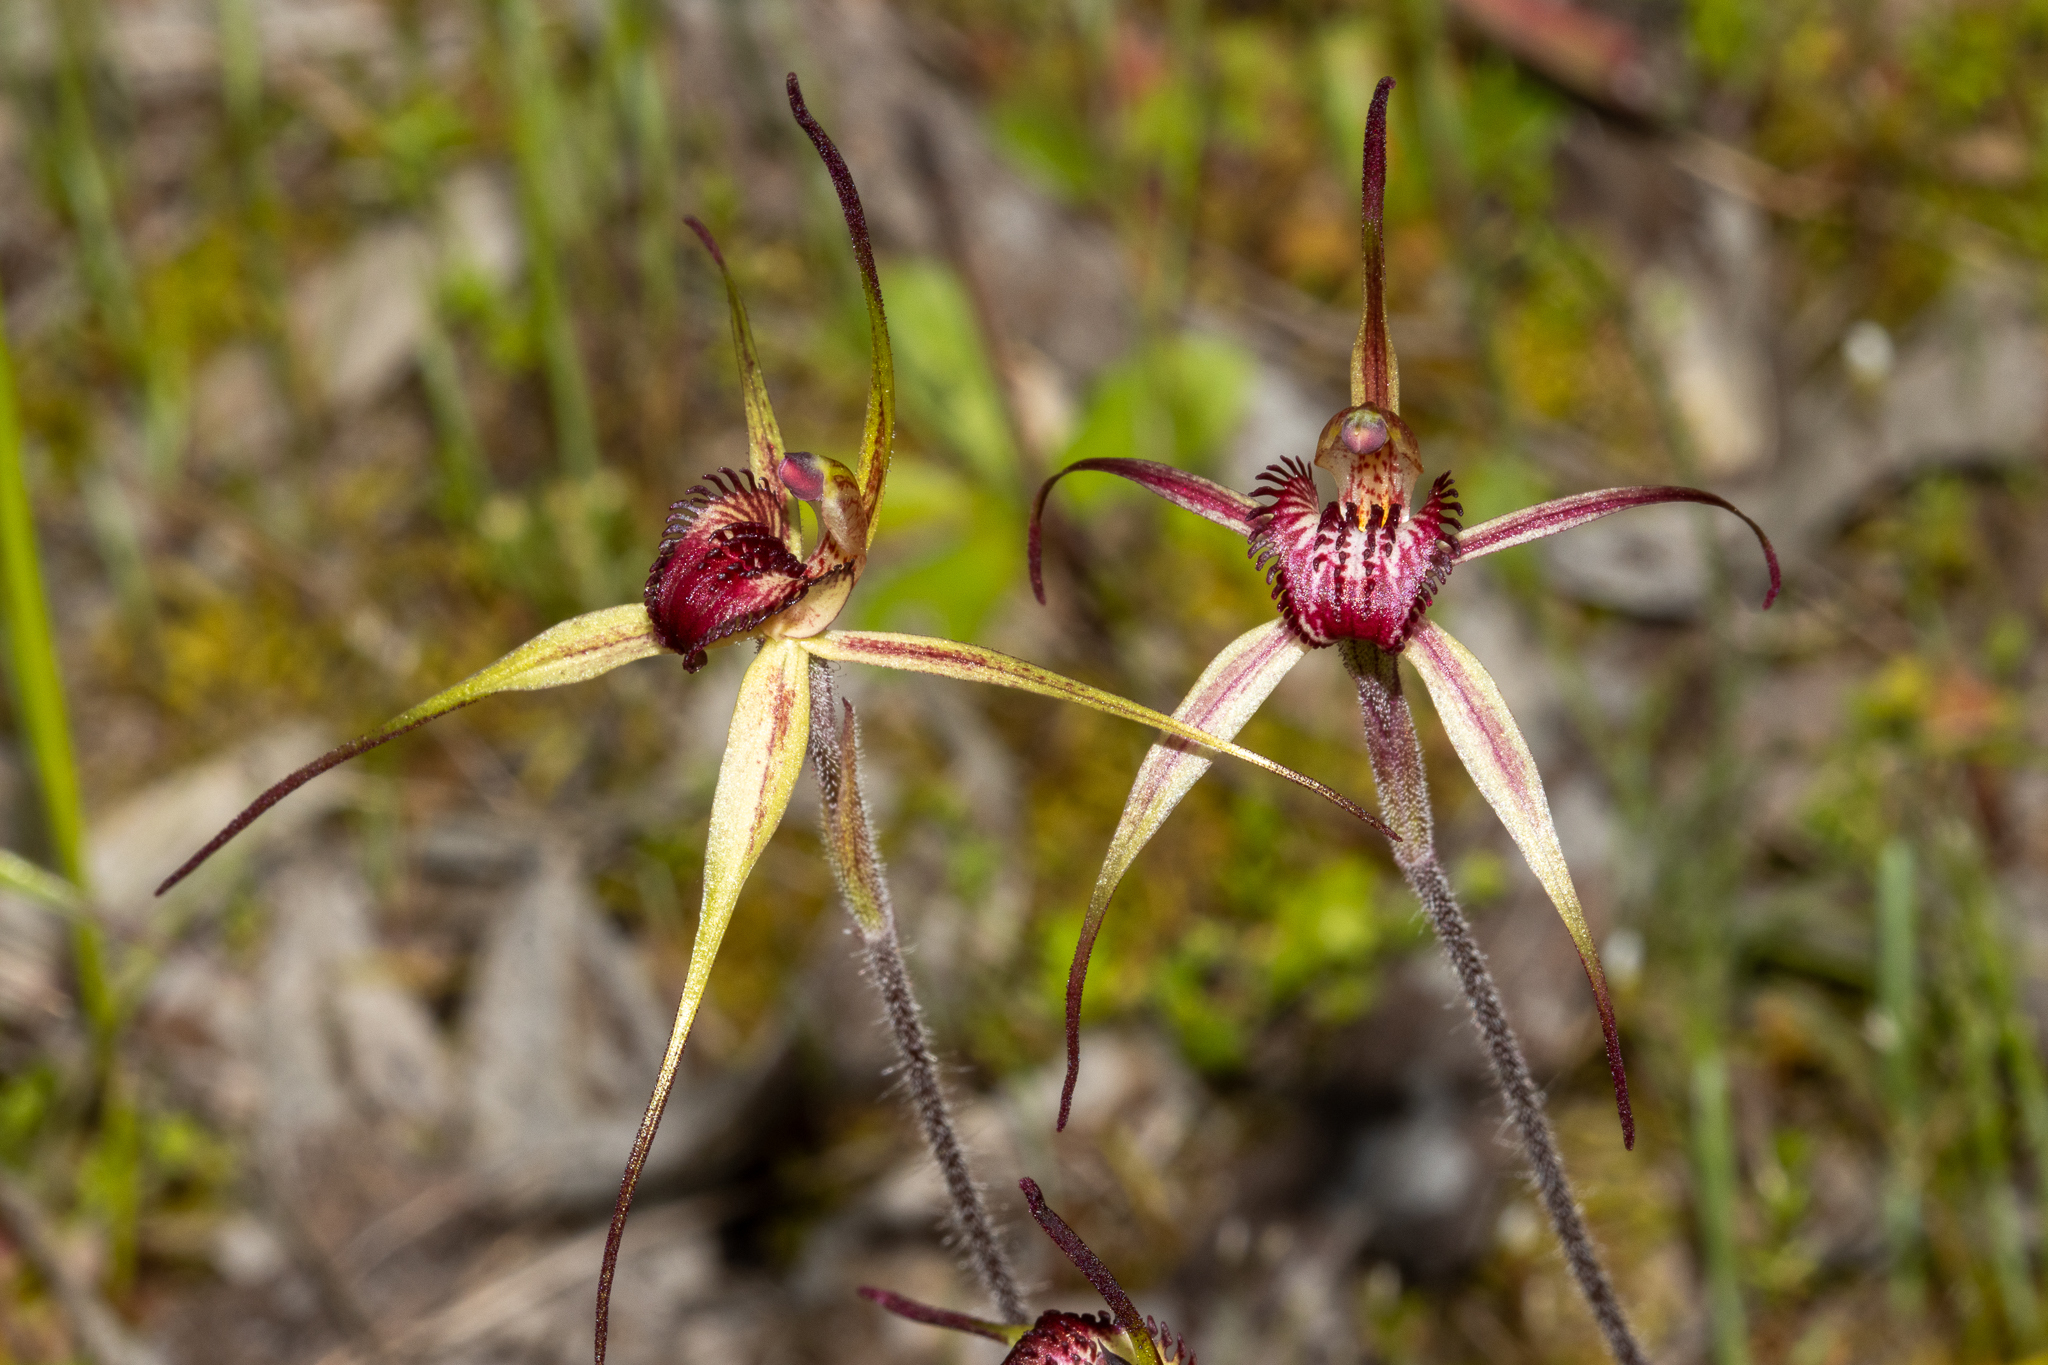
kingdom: Plantae
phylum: Tracheophyta
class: Liliopsida
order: Asparagales
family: Orchidaceae
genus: Caladenia
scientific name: Caladenia
